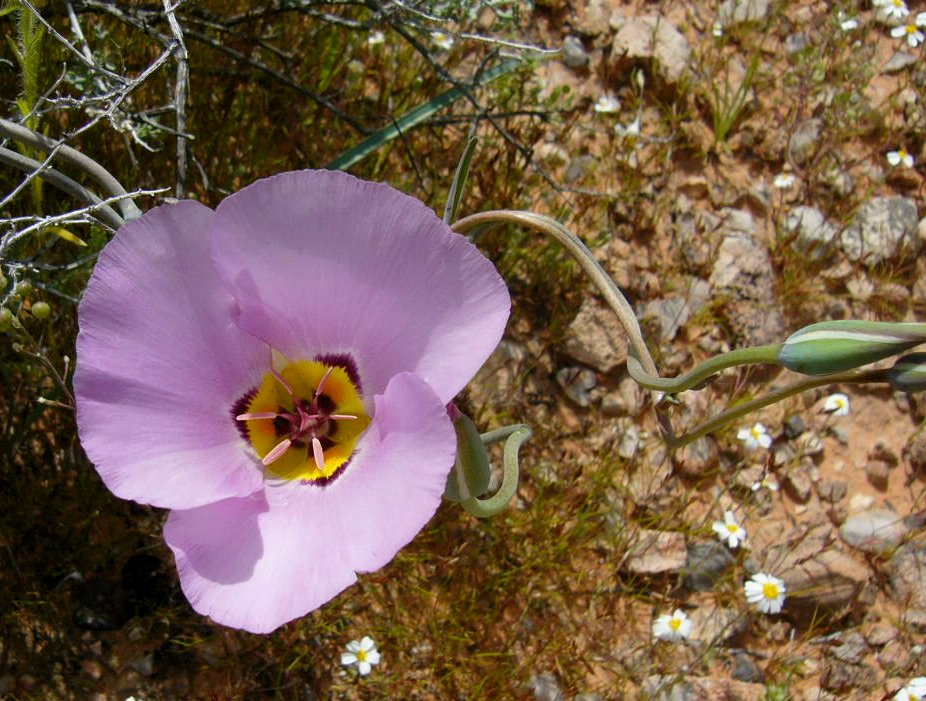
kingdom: Plantae
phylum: Tracheophyta
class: Liliopsida
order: Liliales
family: Liliaceae
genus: Calochortus
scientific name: Calochortus flexuosus
